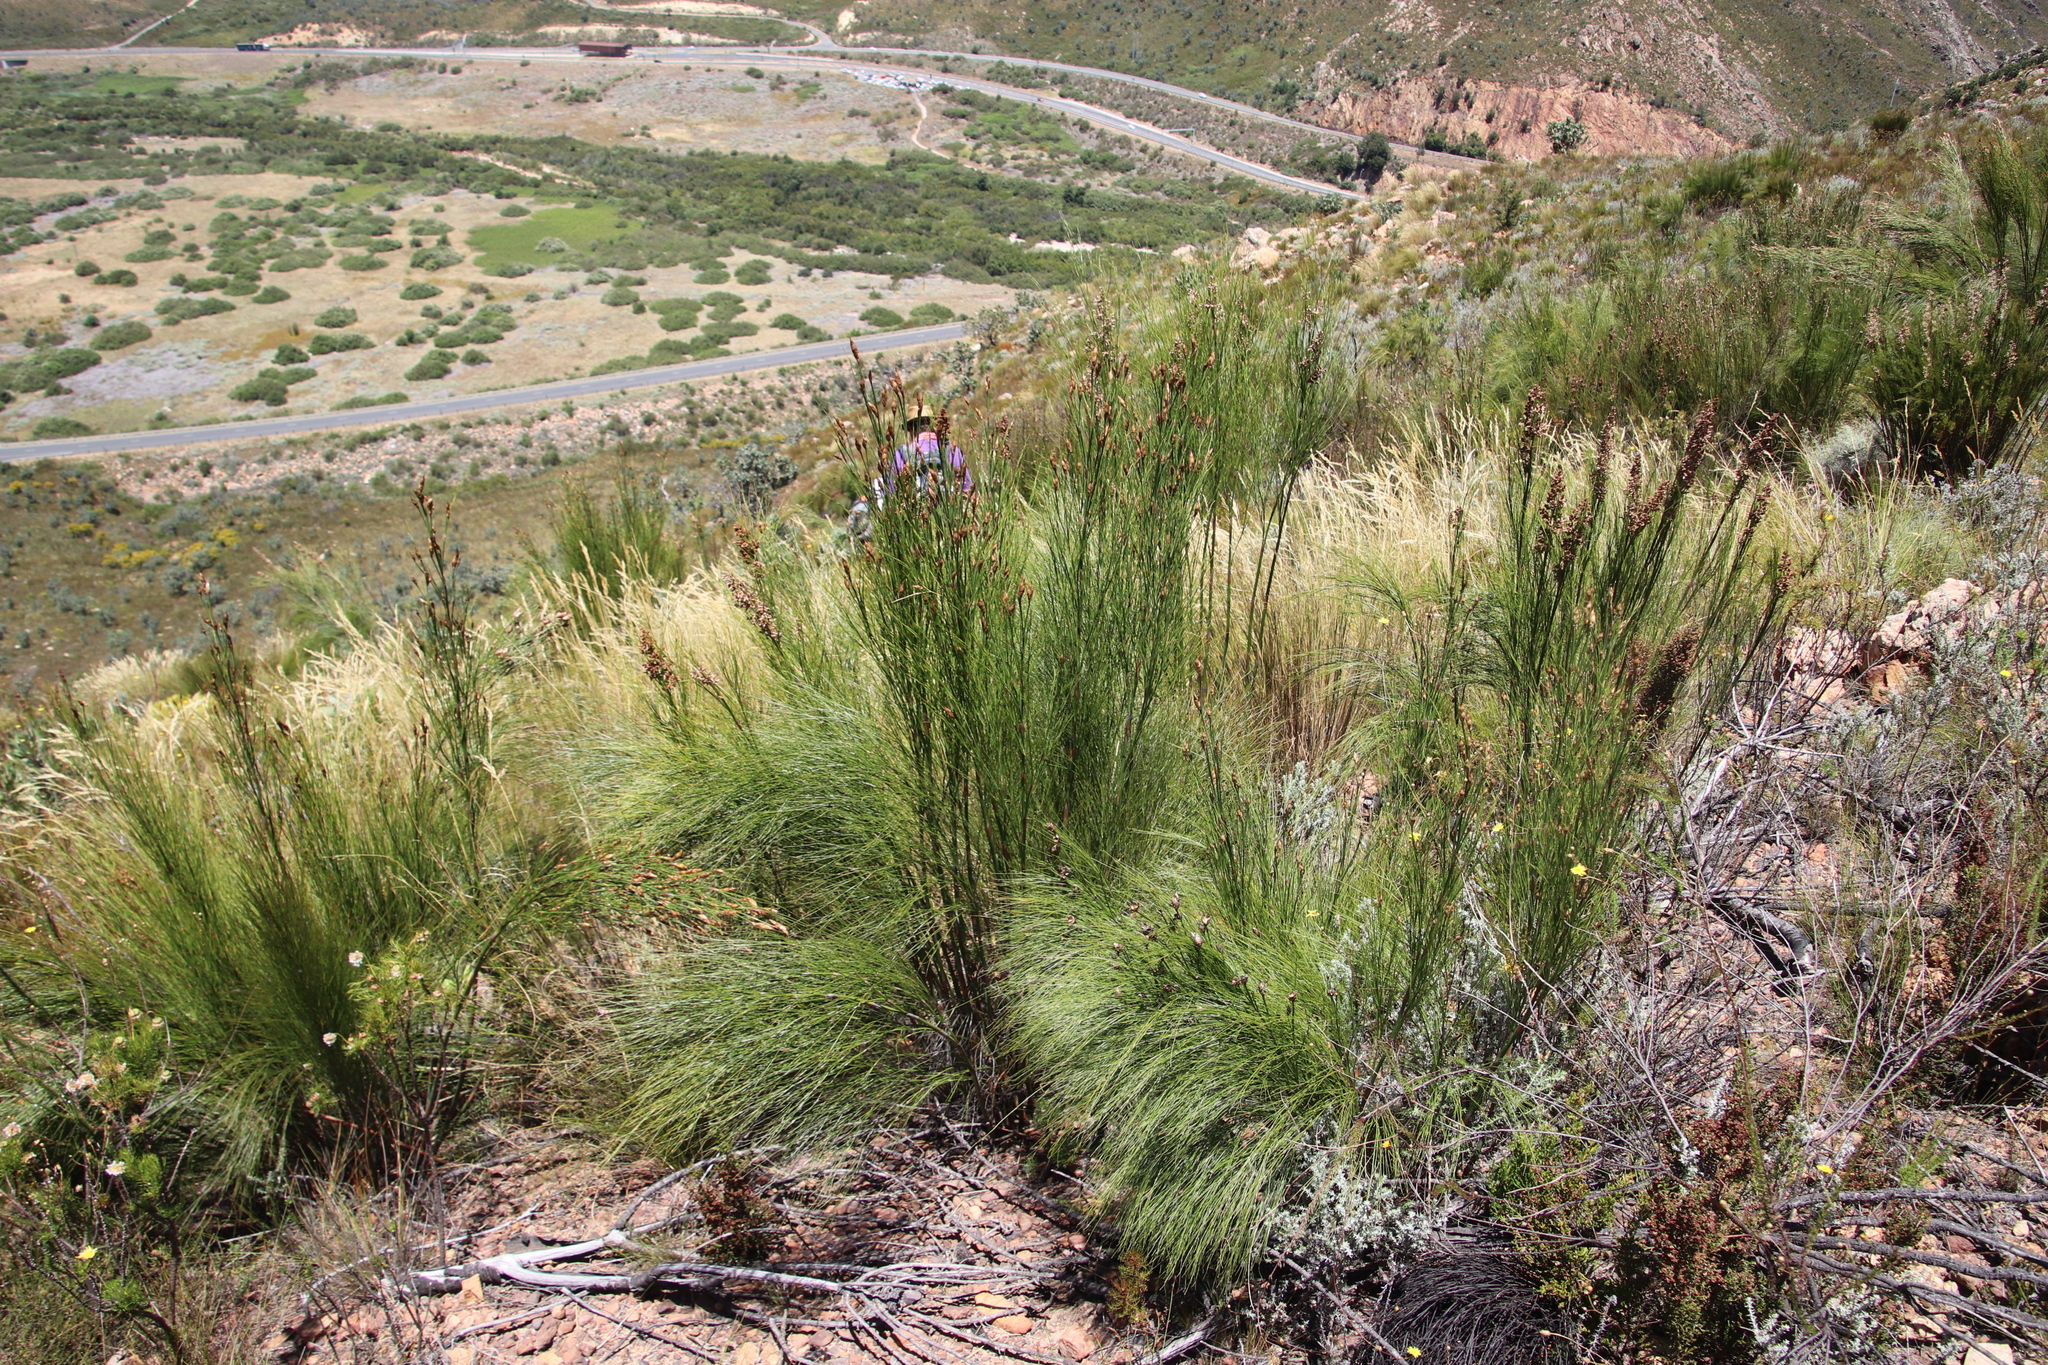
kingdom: Plantae
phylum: Tracheophyta
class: Liliopsida
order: Poales
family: Restionaceae
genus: Cannomois
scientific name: Cannomois virgata
